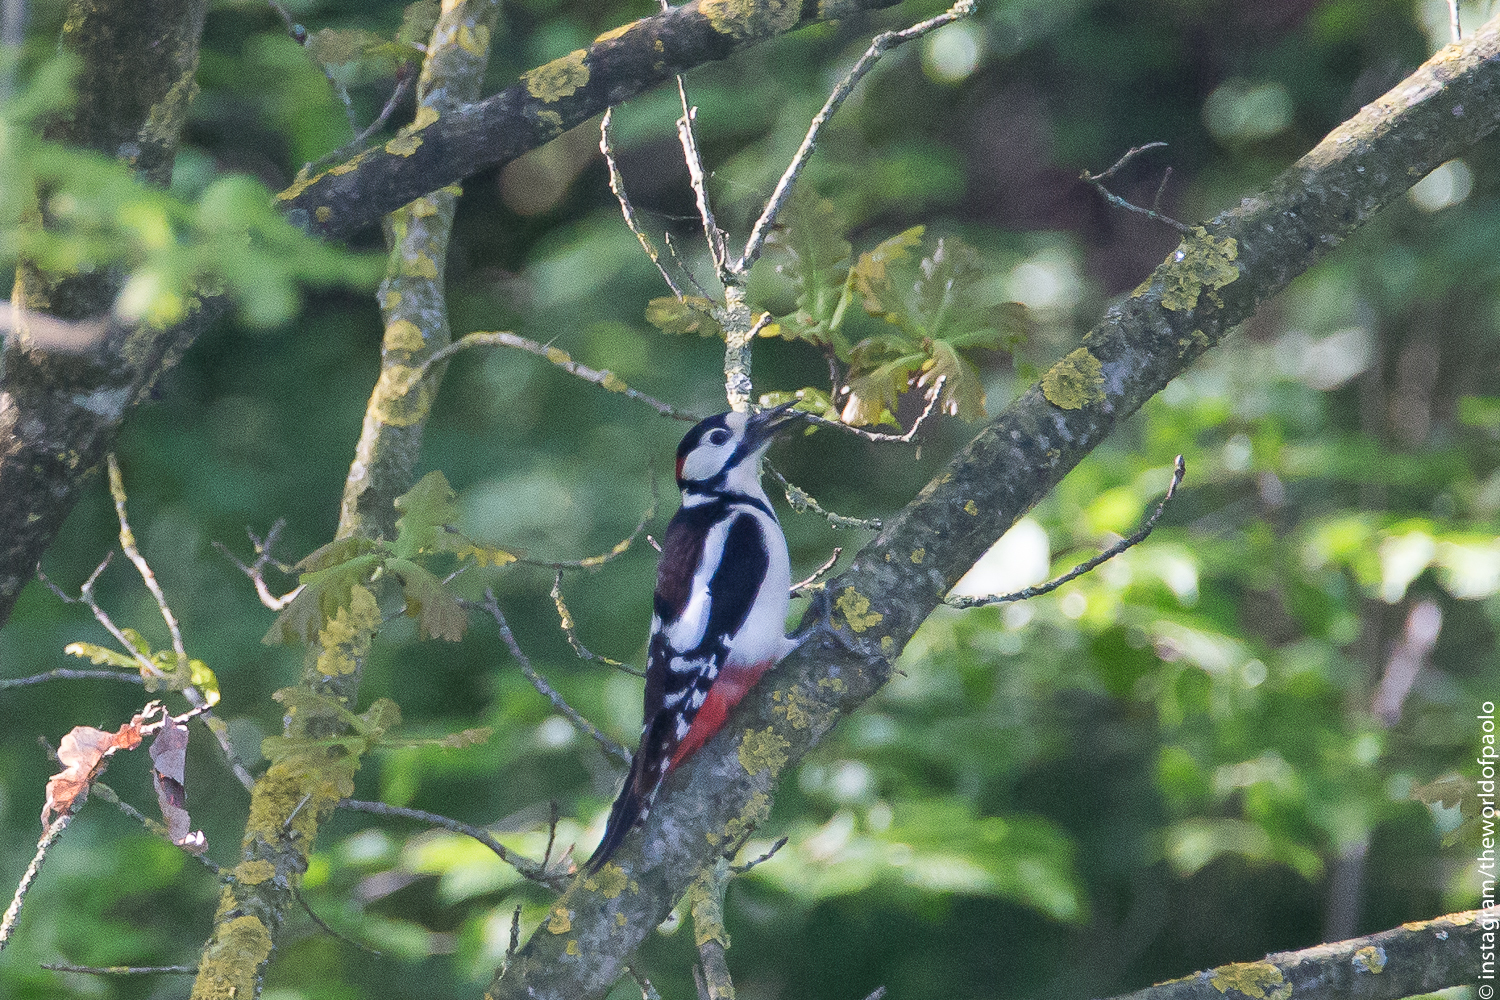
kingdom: Animalia
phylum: Chordata
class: Aves
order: Piciformes
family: Picidae
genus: Dendrocopos
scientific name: Dendrocopos major
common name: Great spotted woodpecker
